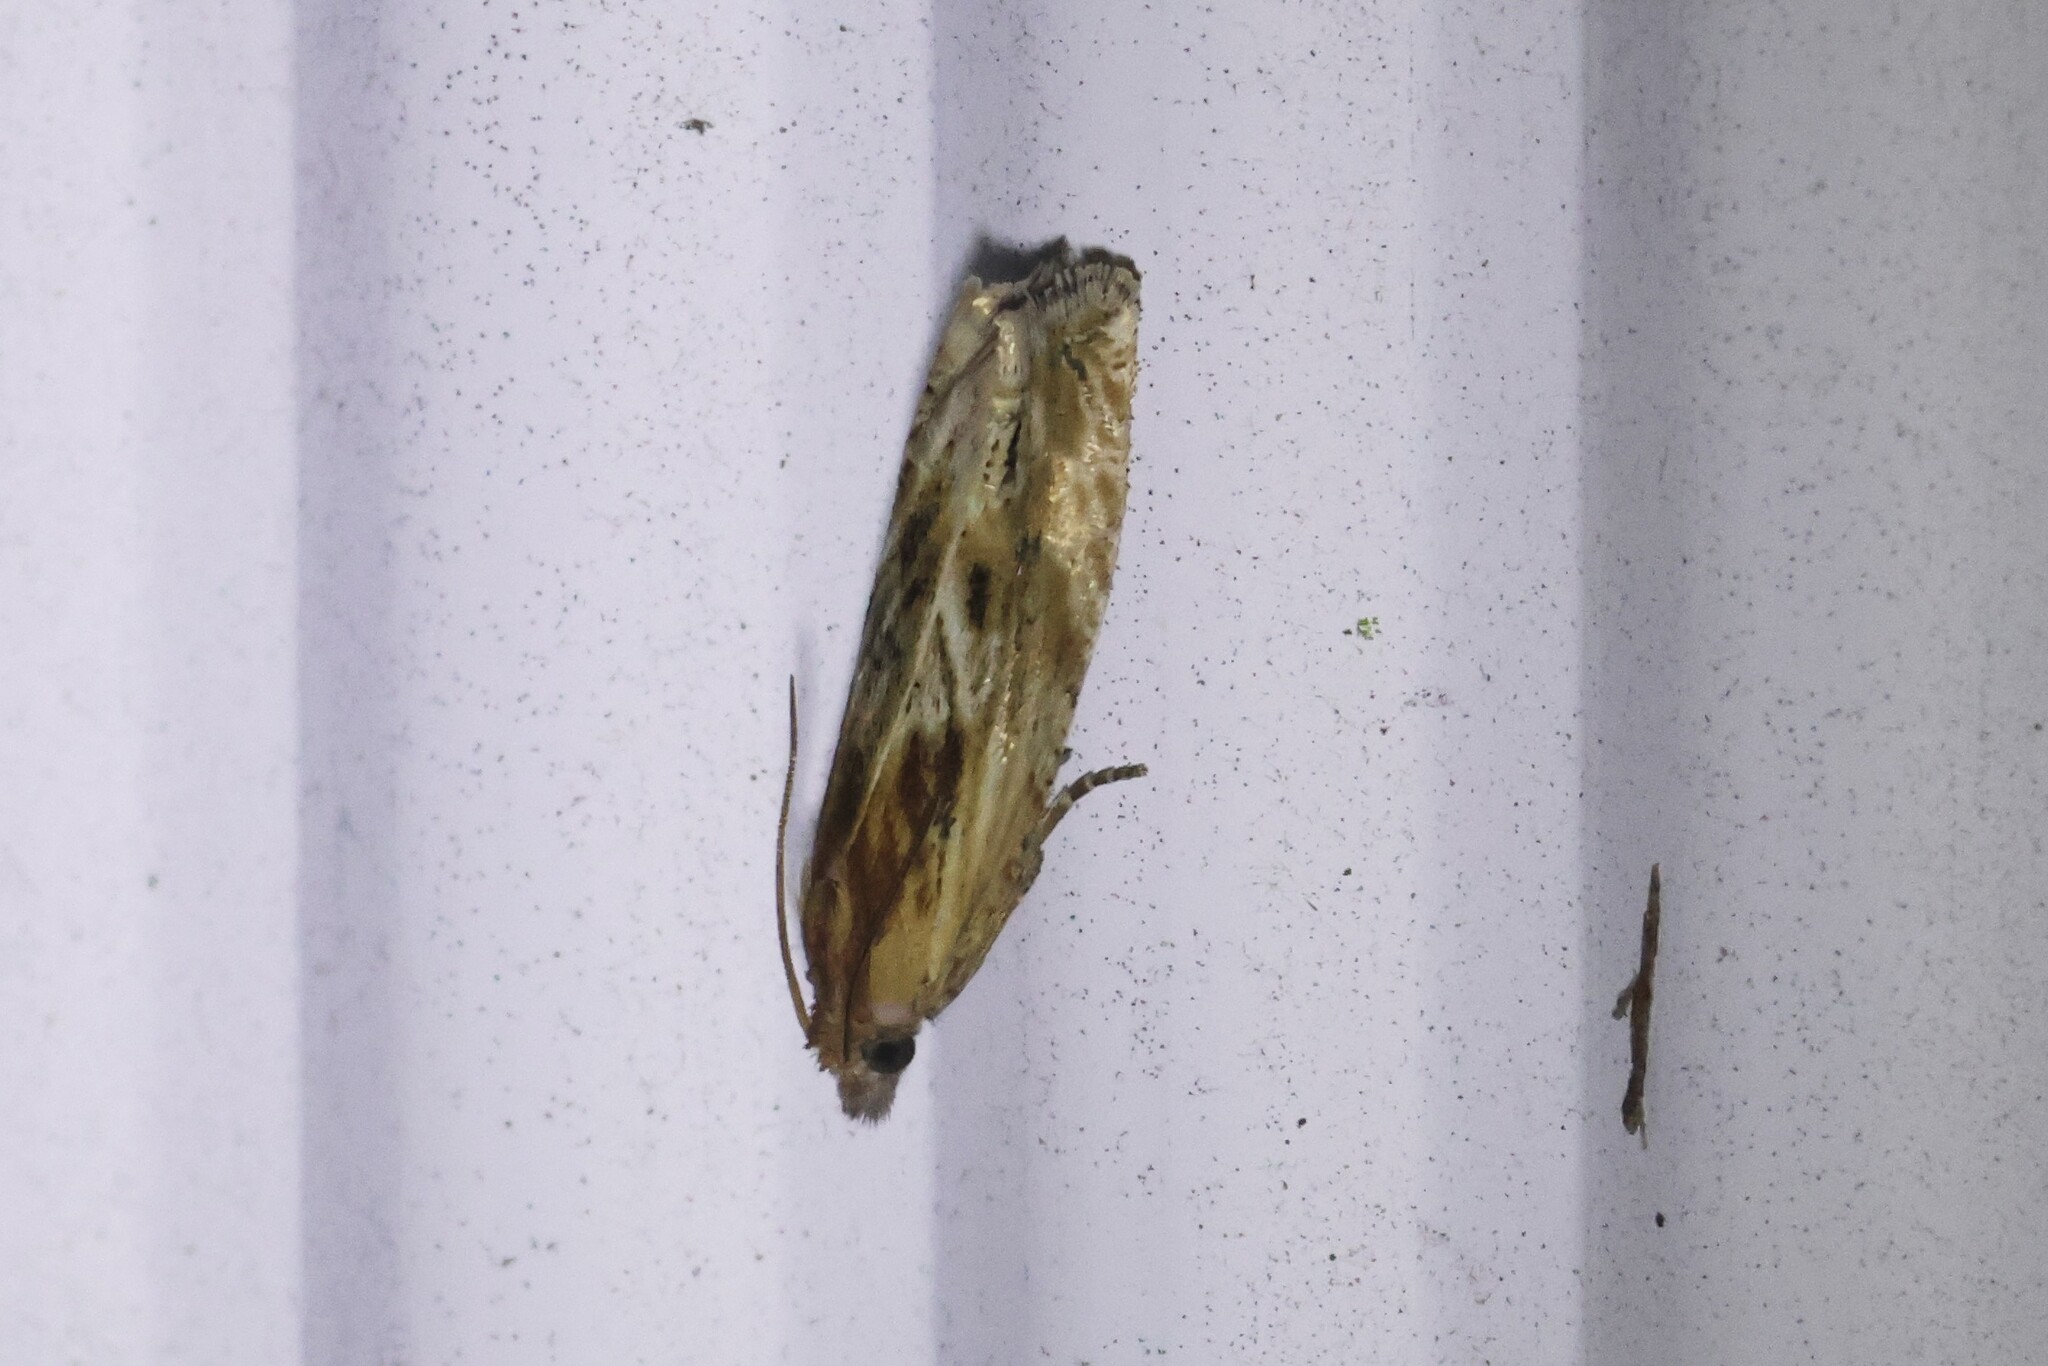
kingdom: Animalia
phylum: Arthropoda
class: Insecta
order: Lepidoptera
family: Tortricidae
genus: Eucosma
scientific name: Eucosma cana
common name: Hoary belle
